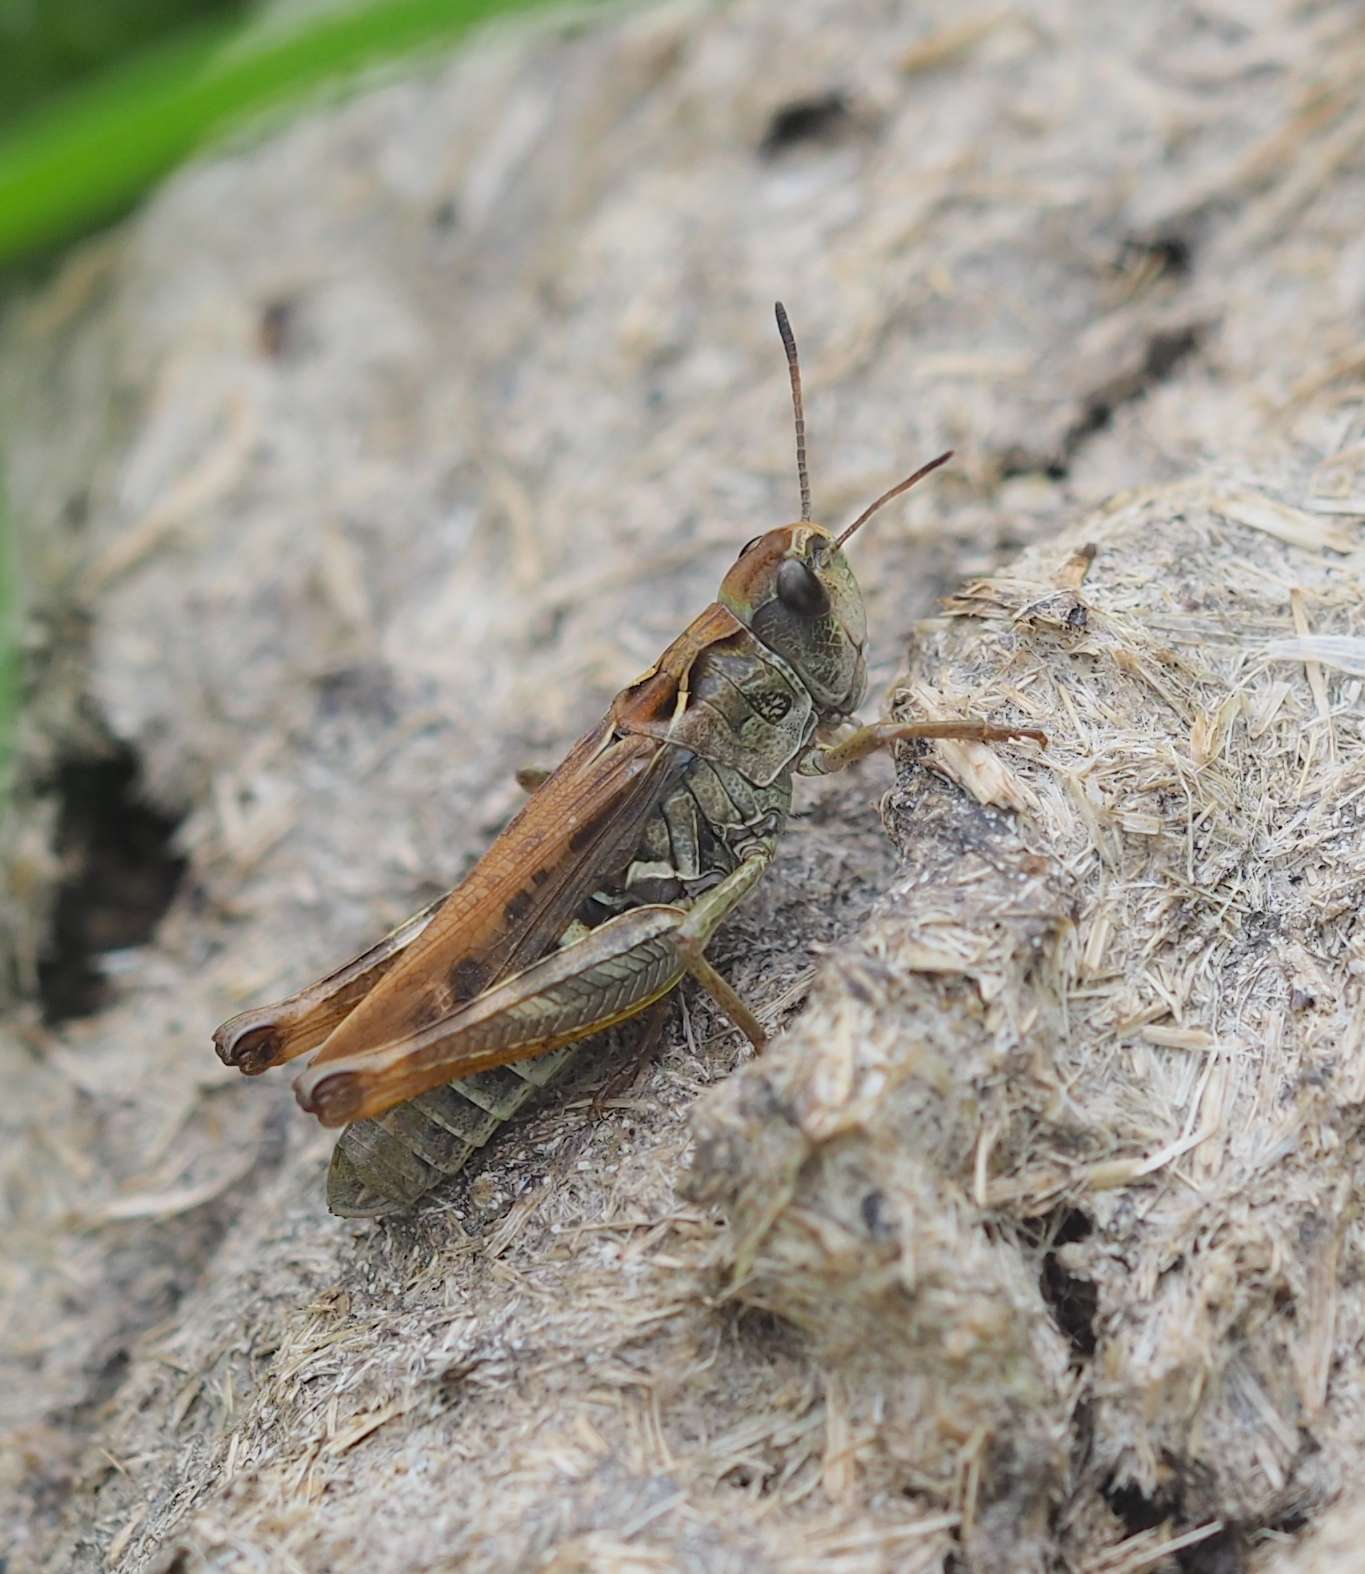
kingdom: Animalia
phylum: Arthropoda
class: Insecta
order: Orthoptera
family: Acrididae
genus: Gomphocerus
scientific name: Gomphocerus sibiricus
